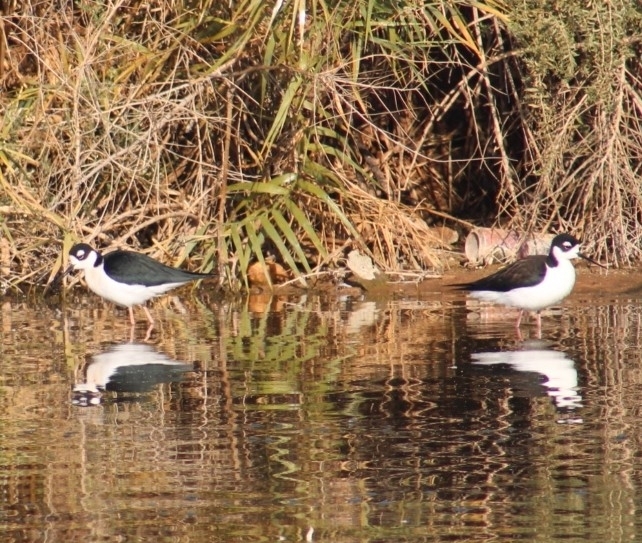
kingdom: Animalia
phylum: Chordata
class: Aves
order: Charadriiformes
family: Recurvirostridae
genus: Himantopus
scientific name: Himantopus mexicanus
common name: Black-necked stilt
